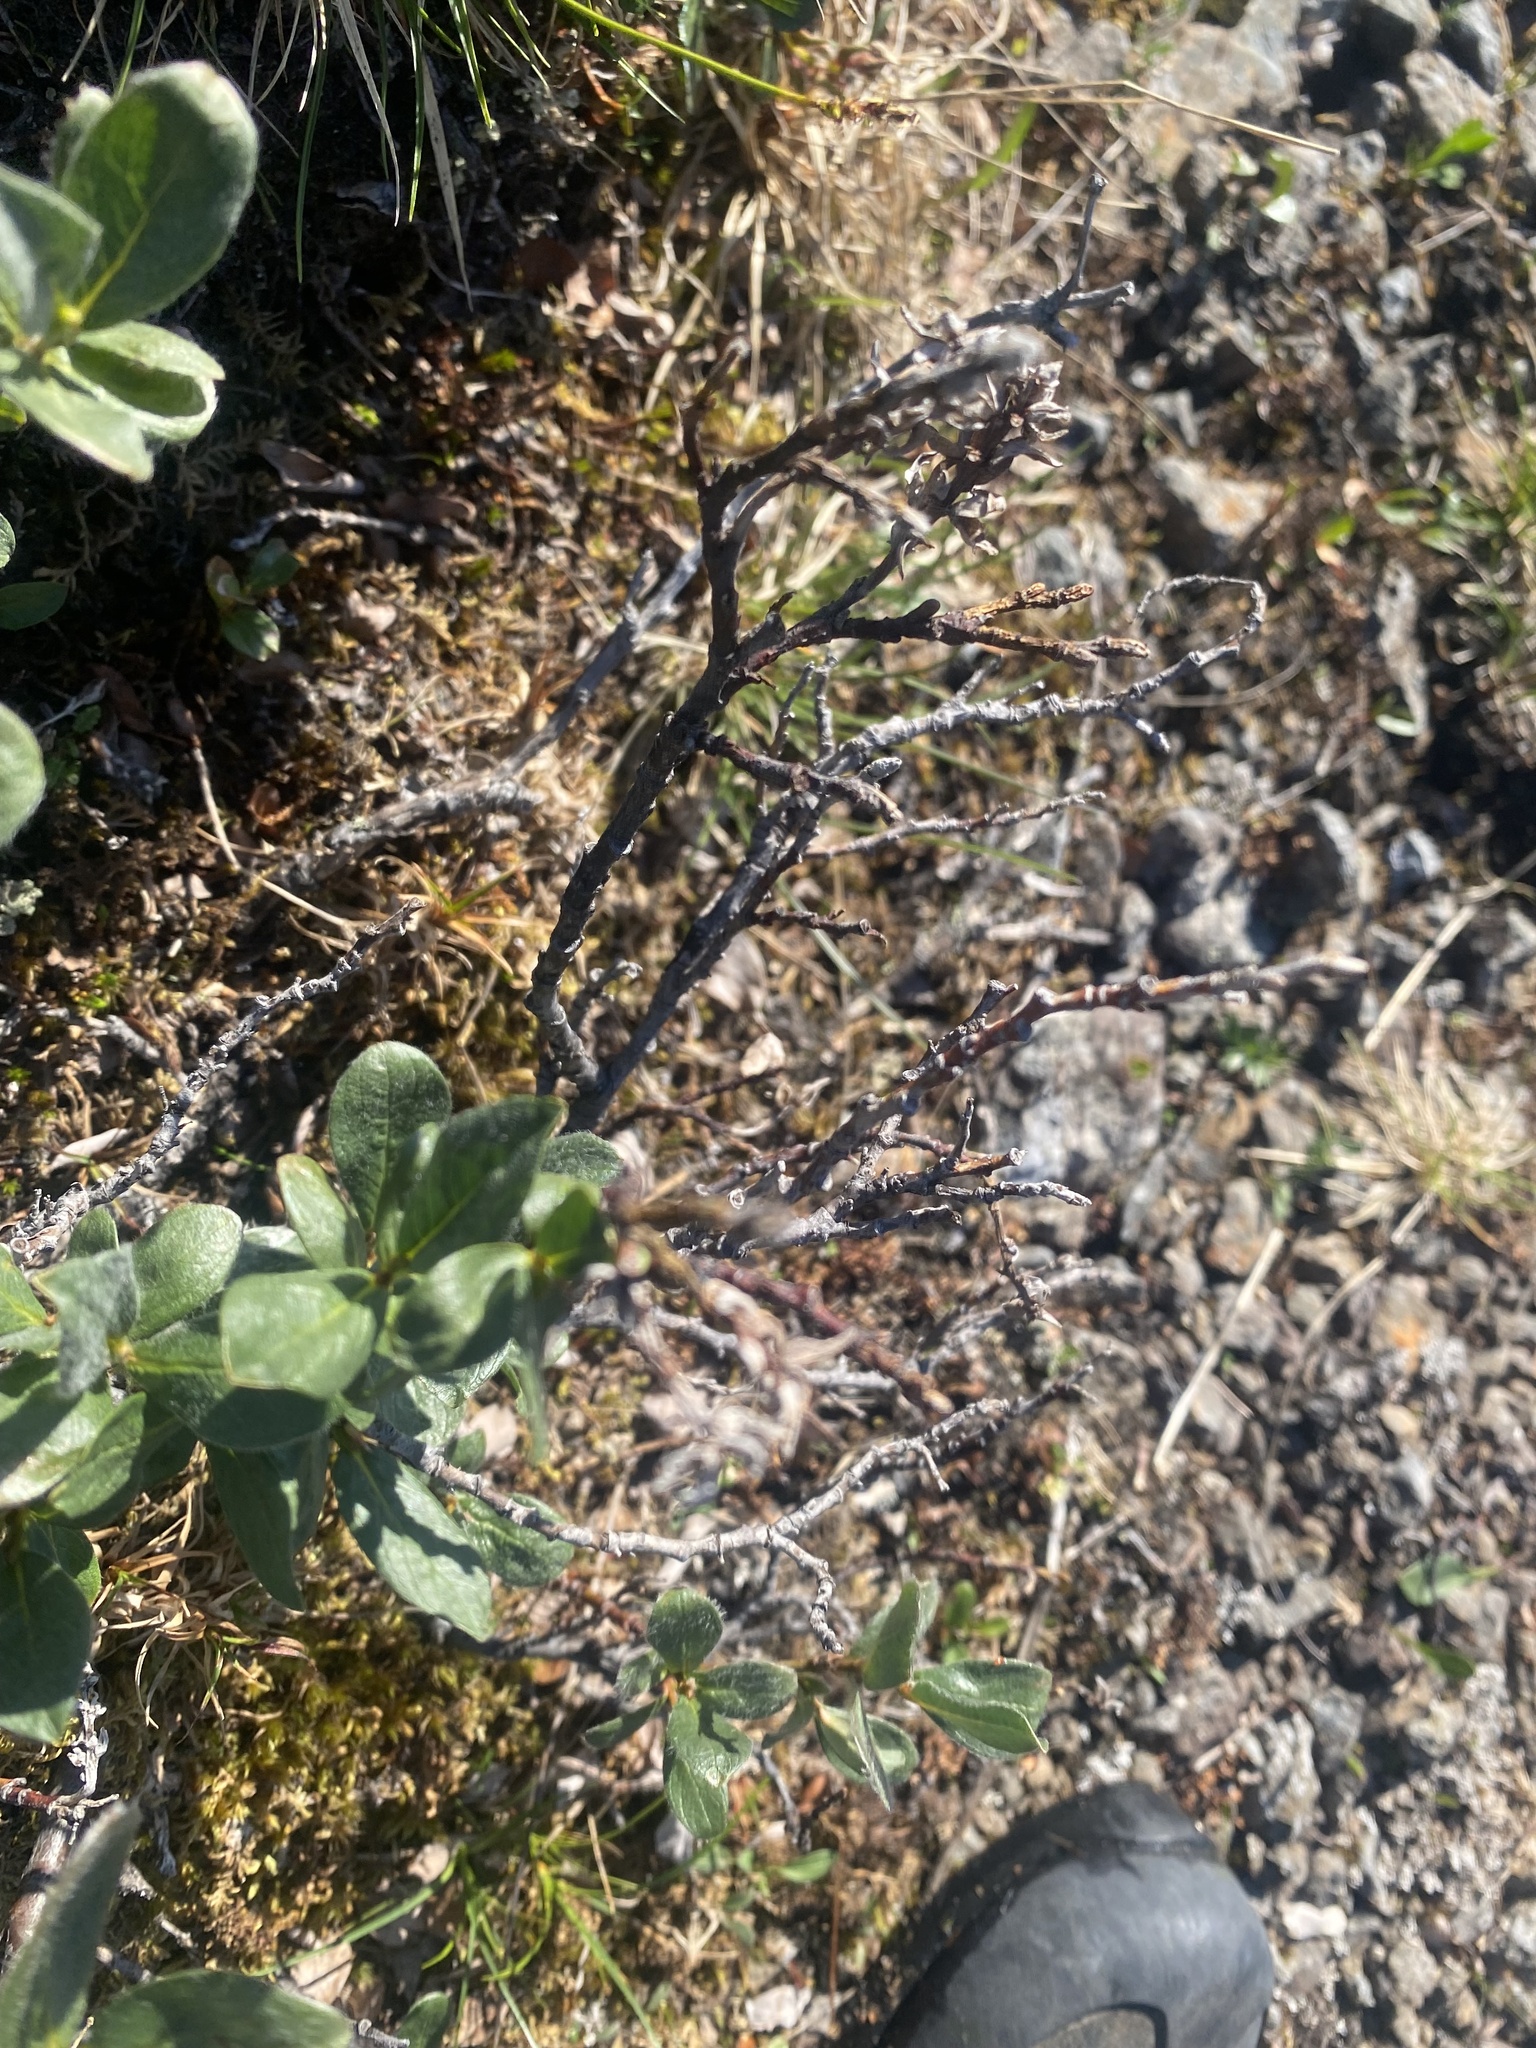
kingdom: Plantae
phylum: Tracheophyta
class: Magnoliopsida
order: Malpighiales
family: Salicaceae
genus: Salix
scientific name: Salix reptans
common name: Arctic creeping willow
